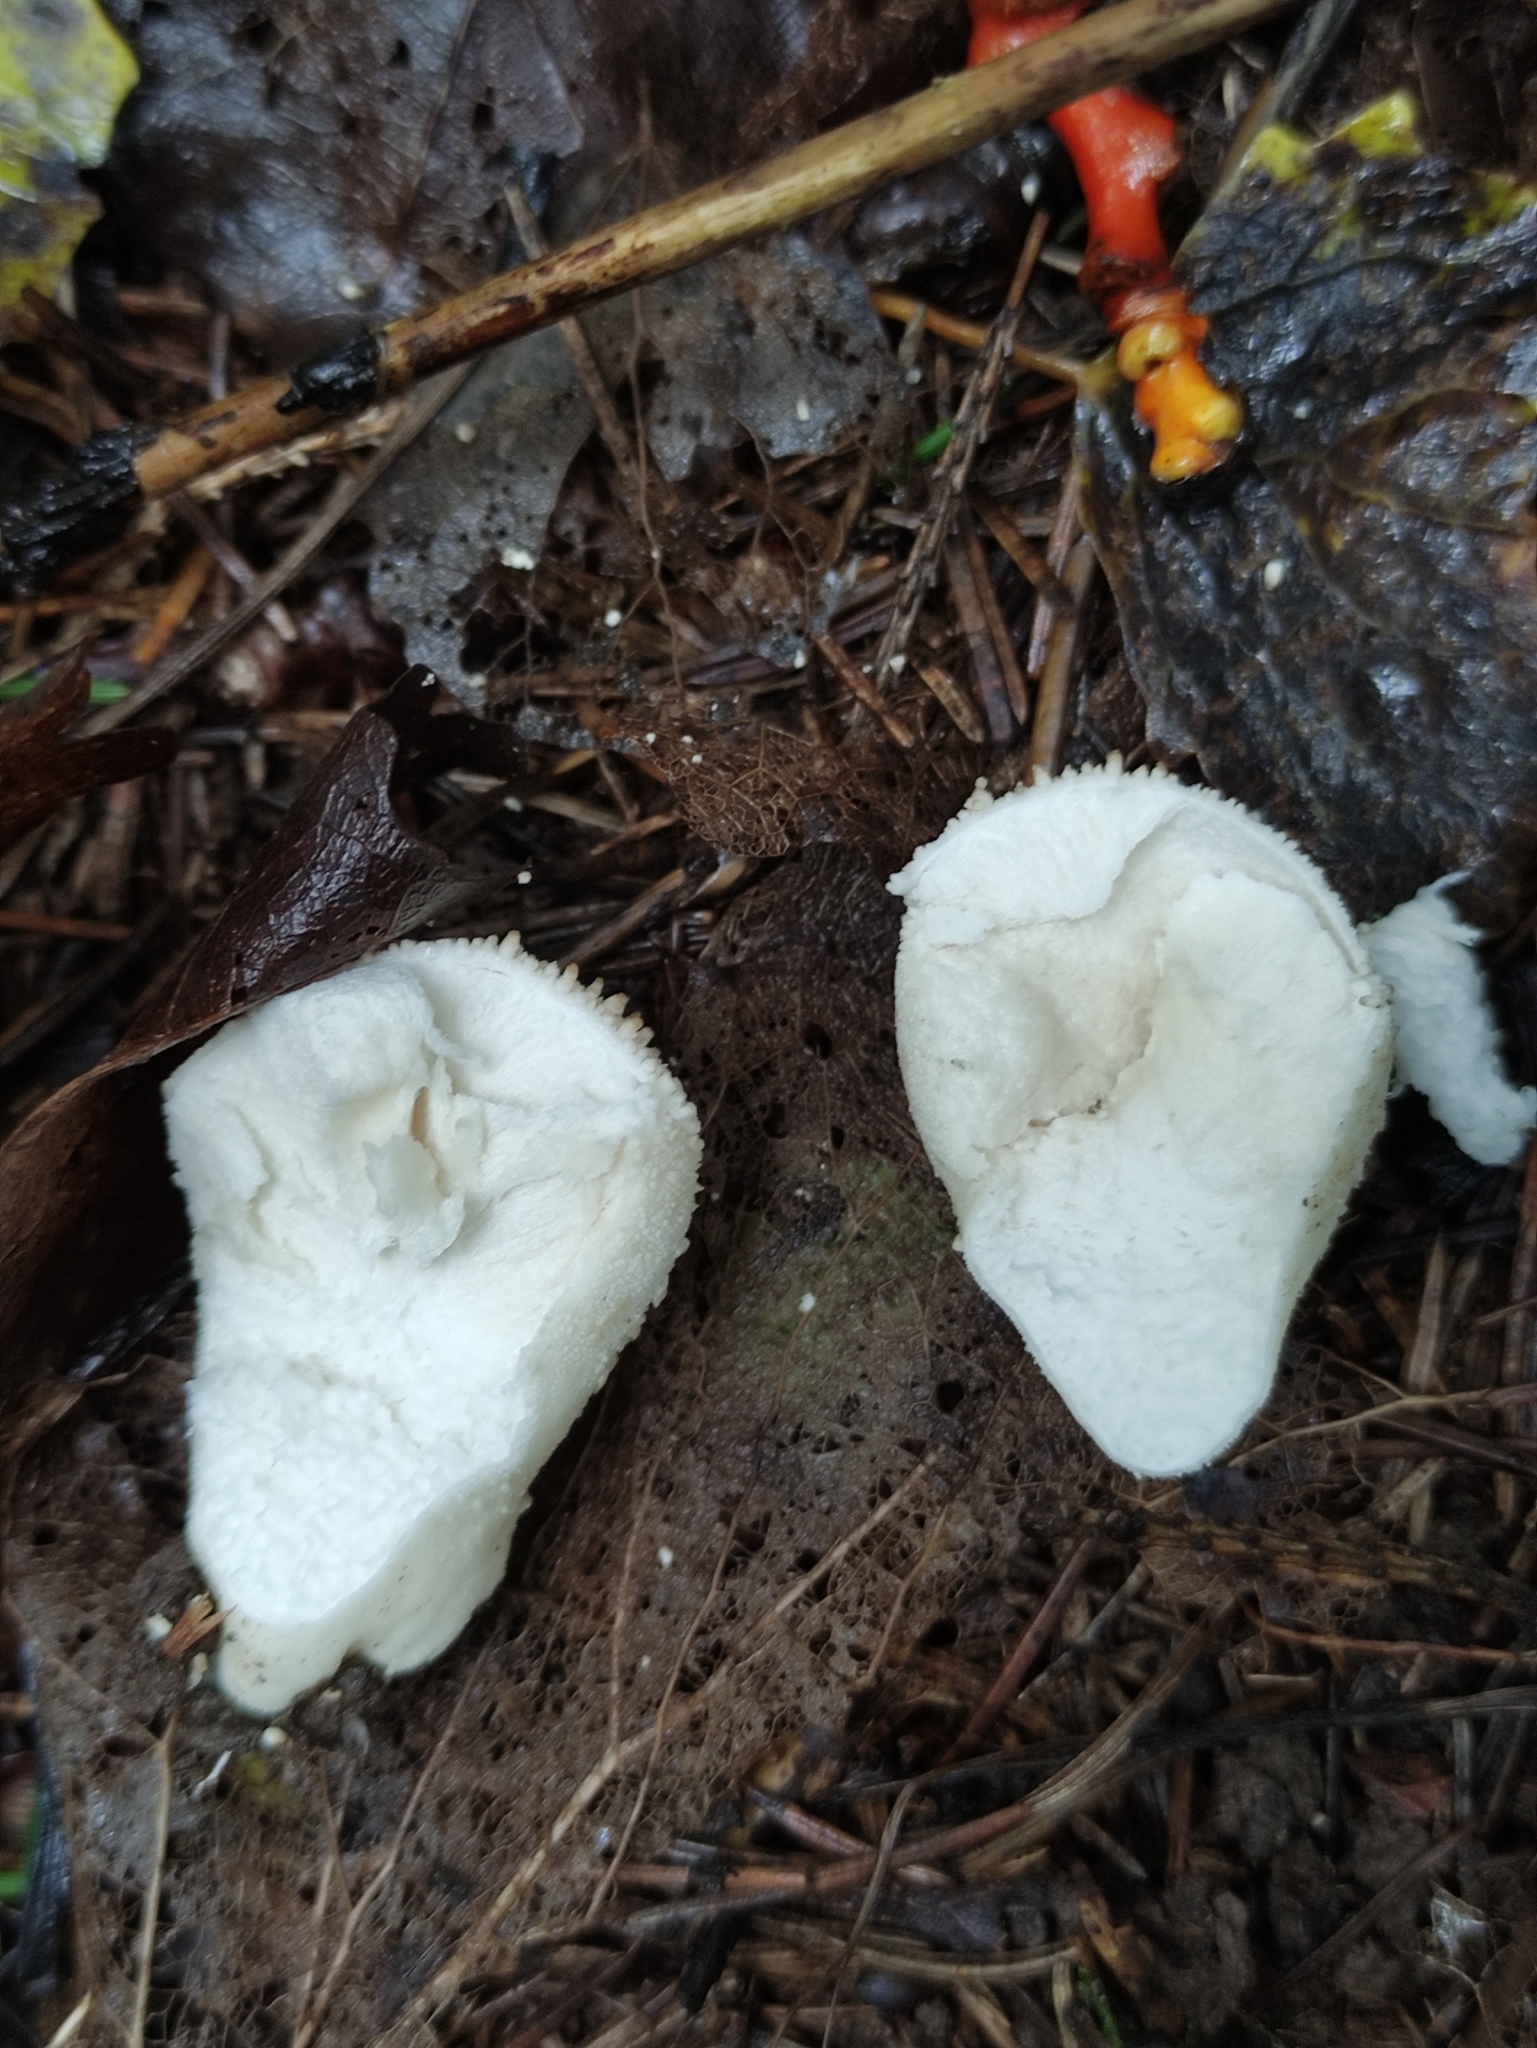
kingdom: Fungi
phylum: Basidiomycota
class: Agaricomycetes
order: Agaricales
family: Lycoperdaceae
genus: Lycoperdon
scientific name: Lycoperdon perlatum
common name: Common puffball
